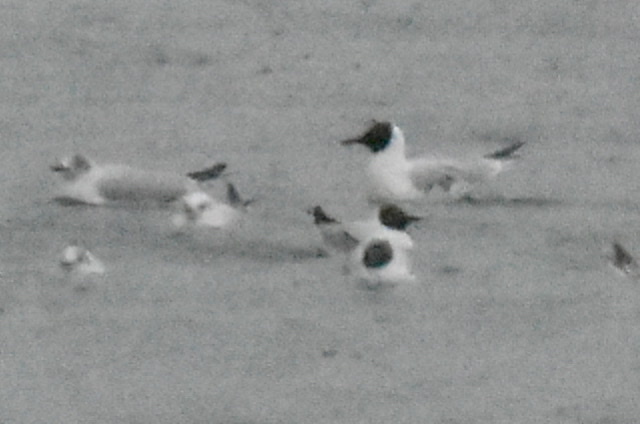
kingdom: Animalia
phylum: Chordata
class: Aves
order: Charadriiformes
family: Laridae
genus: Chroicocephalus
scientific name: Chroicocephalus ridibundus
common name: Black-headed gull
